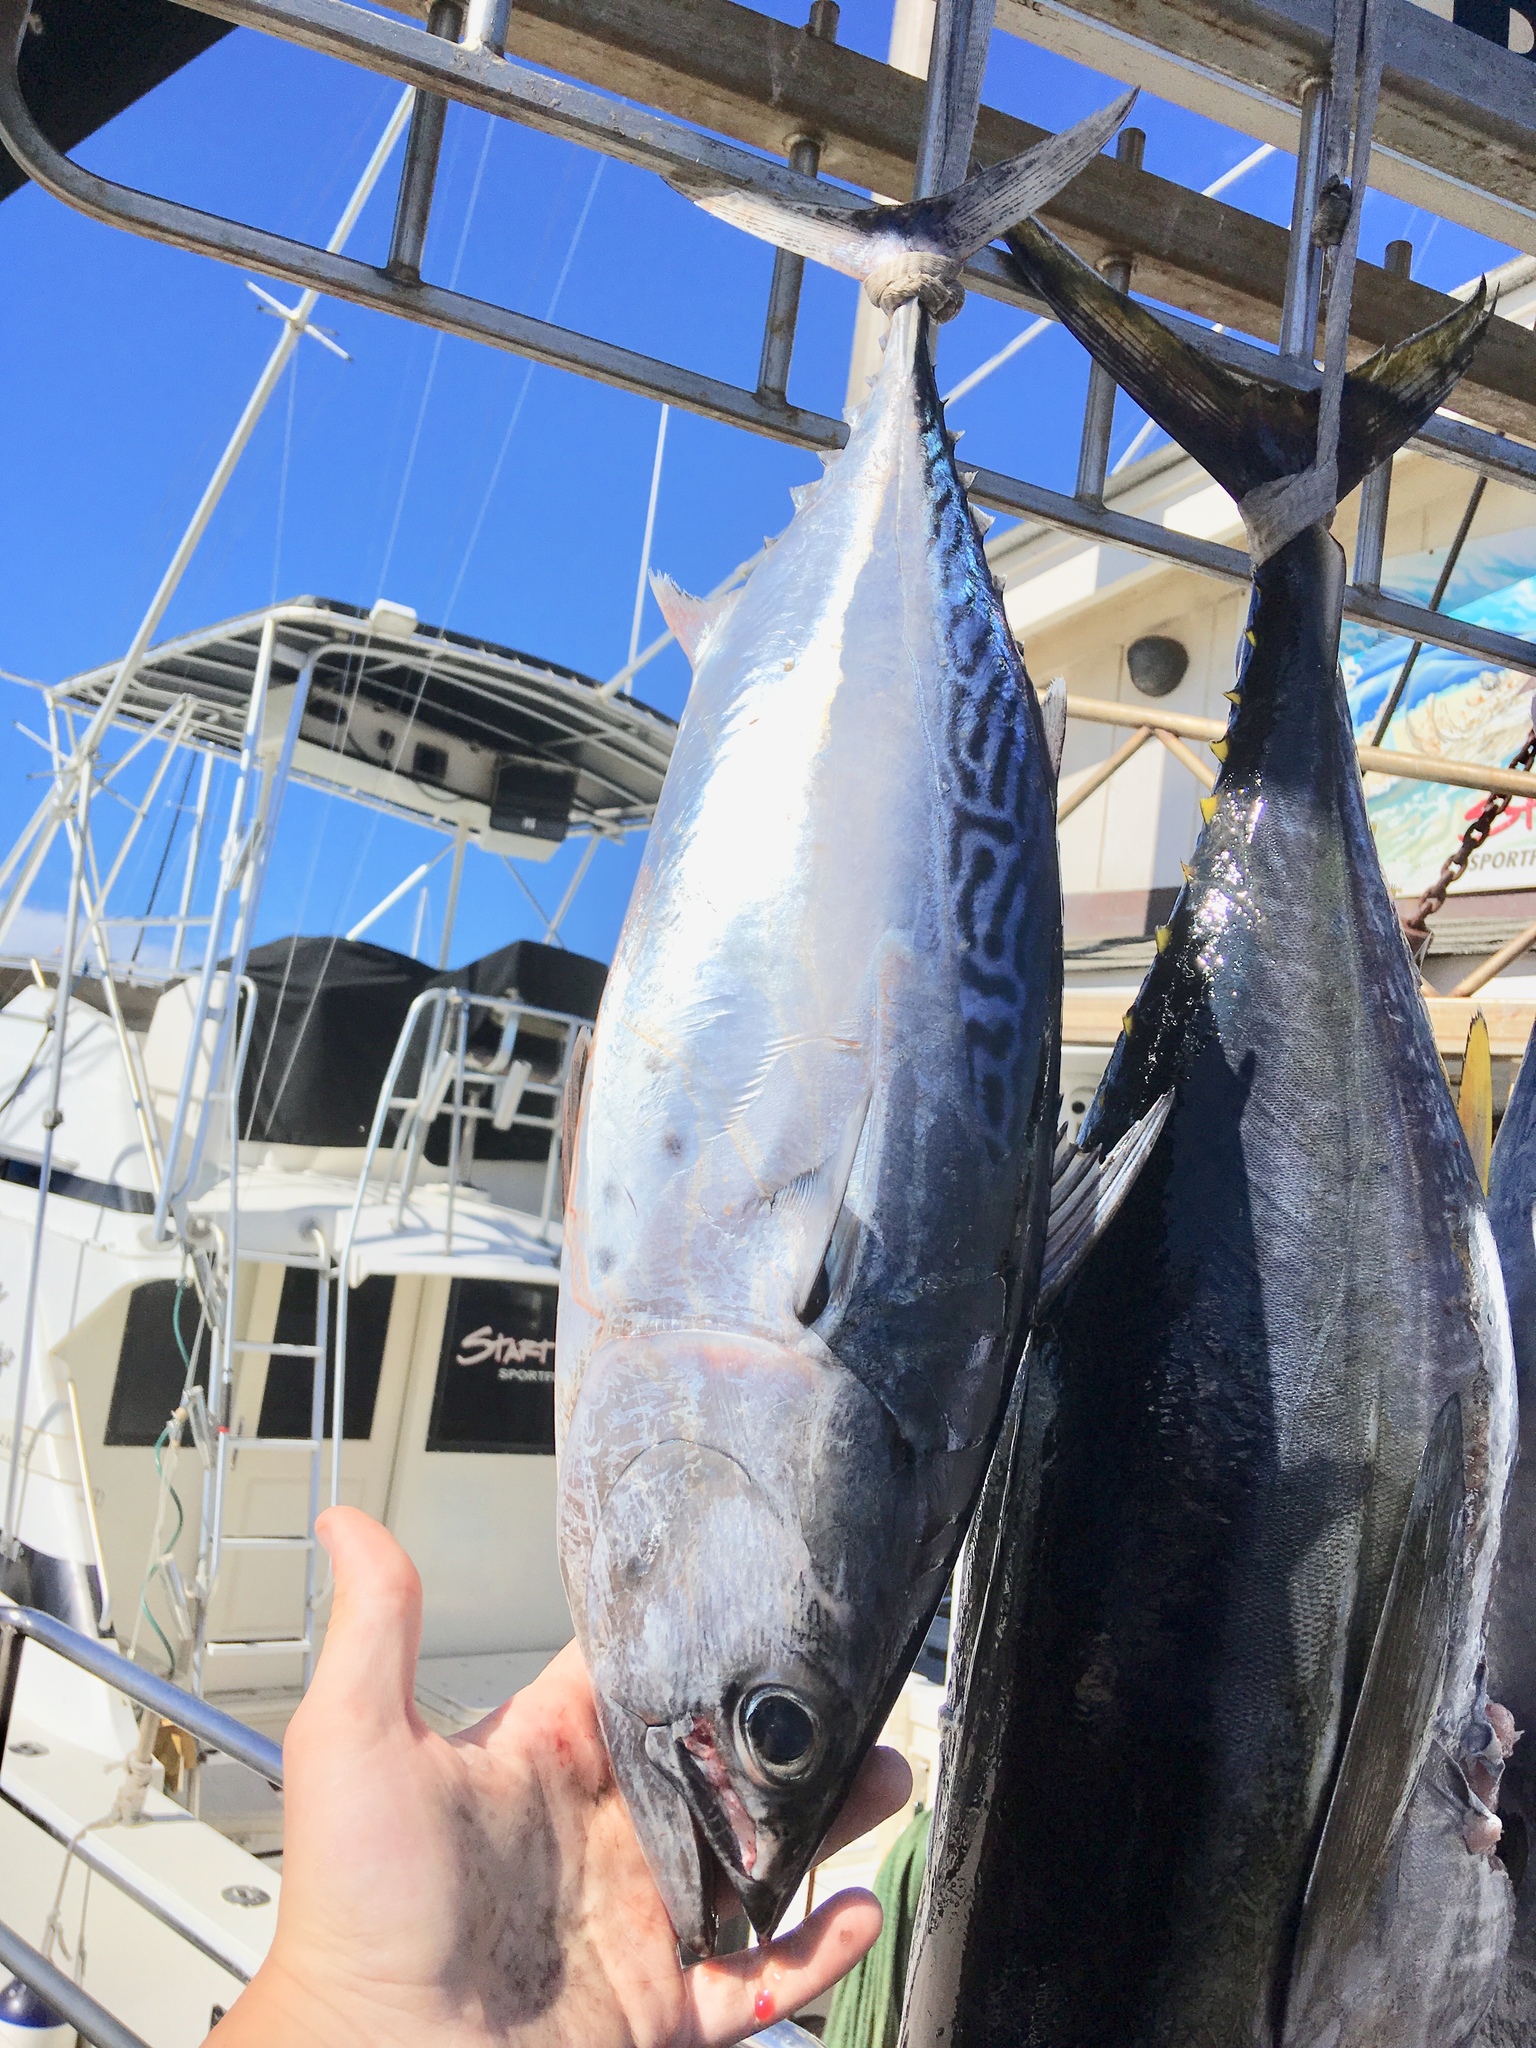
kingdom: Animalia
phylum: Chordata
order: Perciformes
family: Scombridae
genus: Euthynnus
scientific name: Euthynnus affinis
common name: Mackerel tuna
